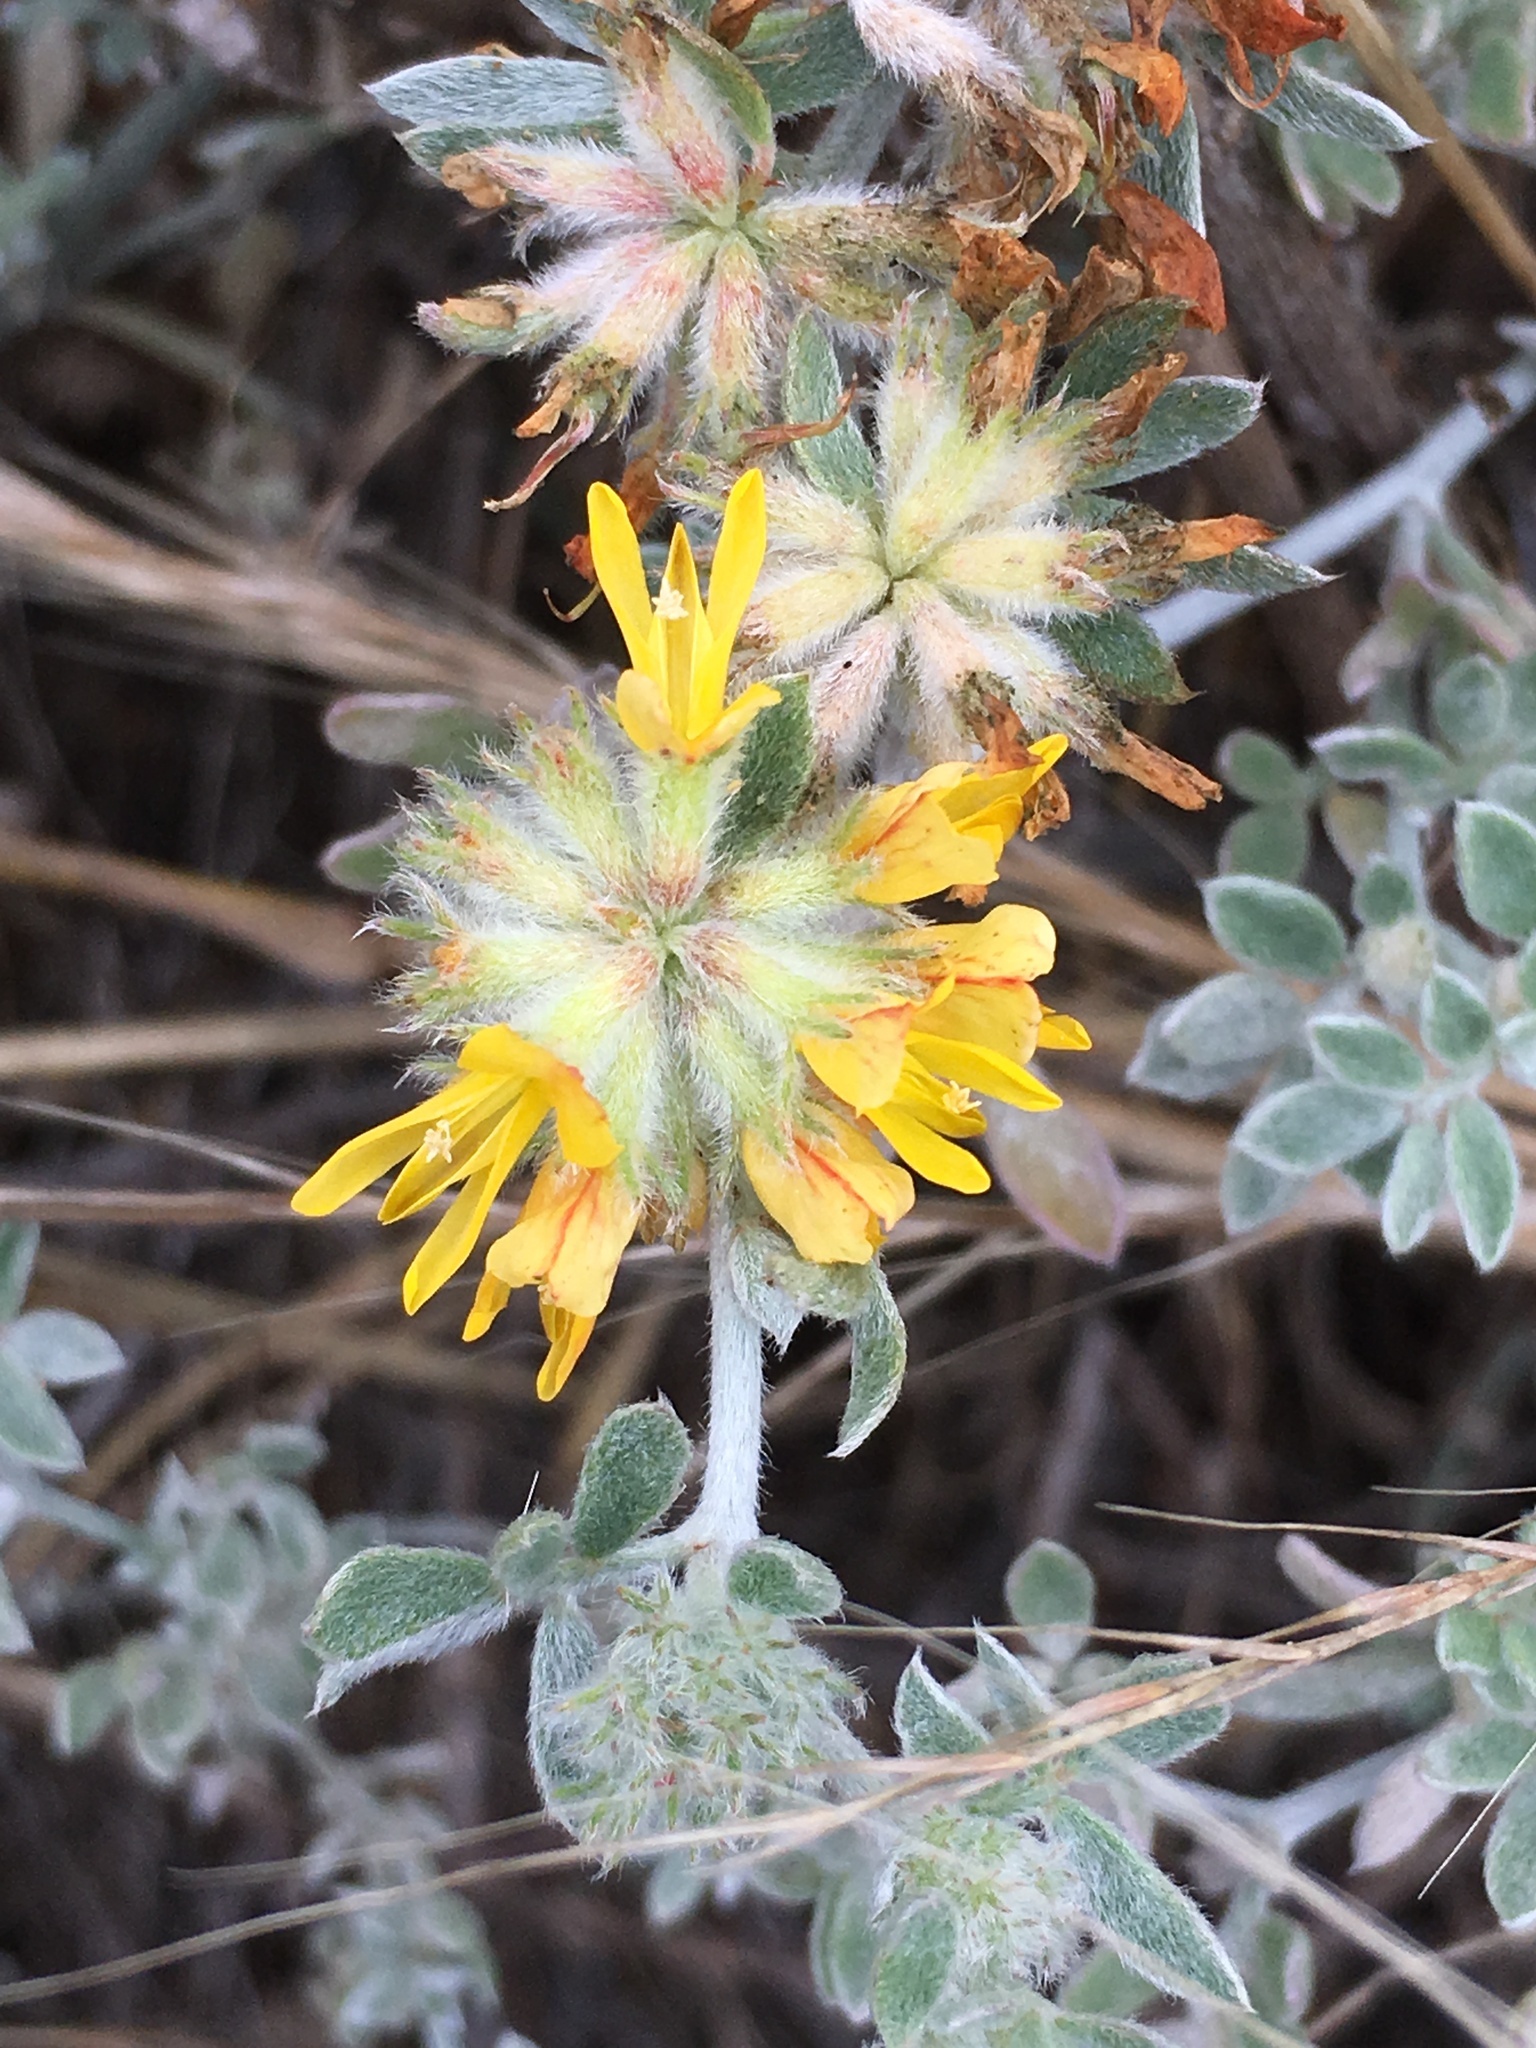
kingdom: Plantae
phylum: Tracheophyta
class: Magnoliopsida
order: Fabales
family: Fabaceae
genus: Acmispon
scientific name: Acmispon argophyllus
